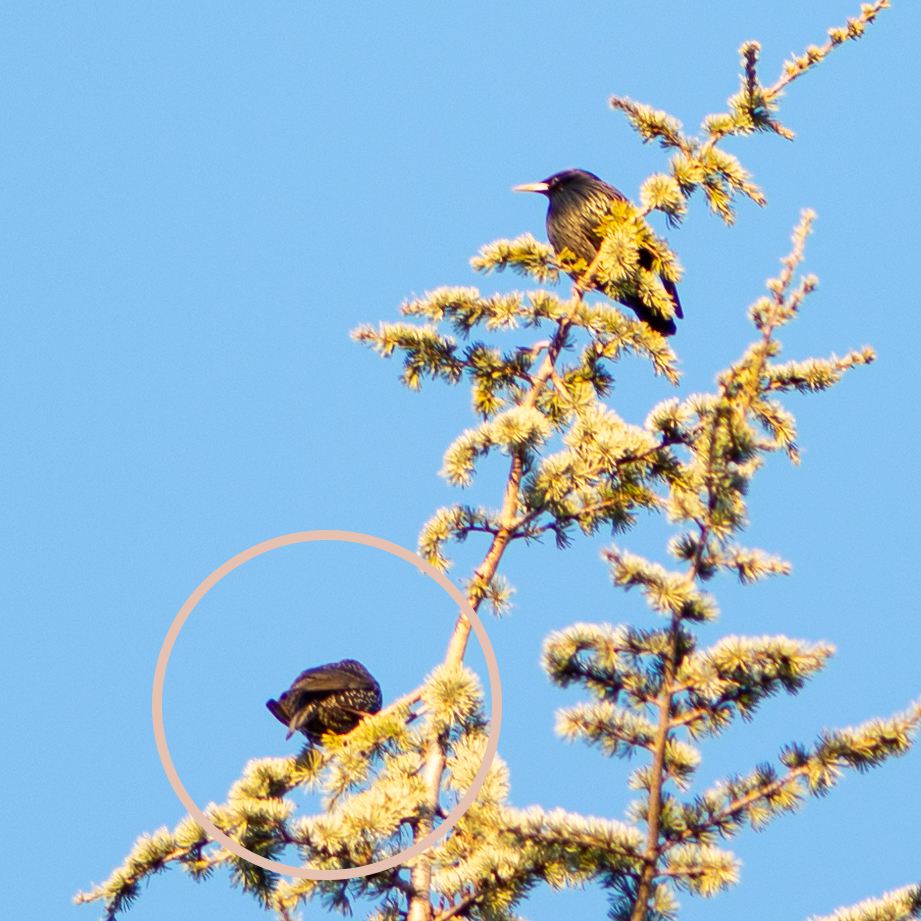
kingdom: Animalia
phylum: Chordata
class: Aves
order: Passeriformes
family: Sturnidae
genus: Sturnus
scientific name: Sturnus unicolor
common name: Spotless starling
